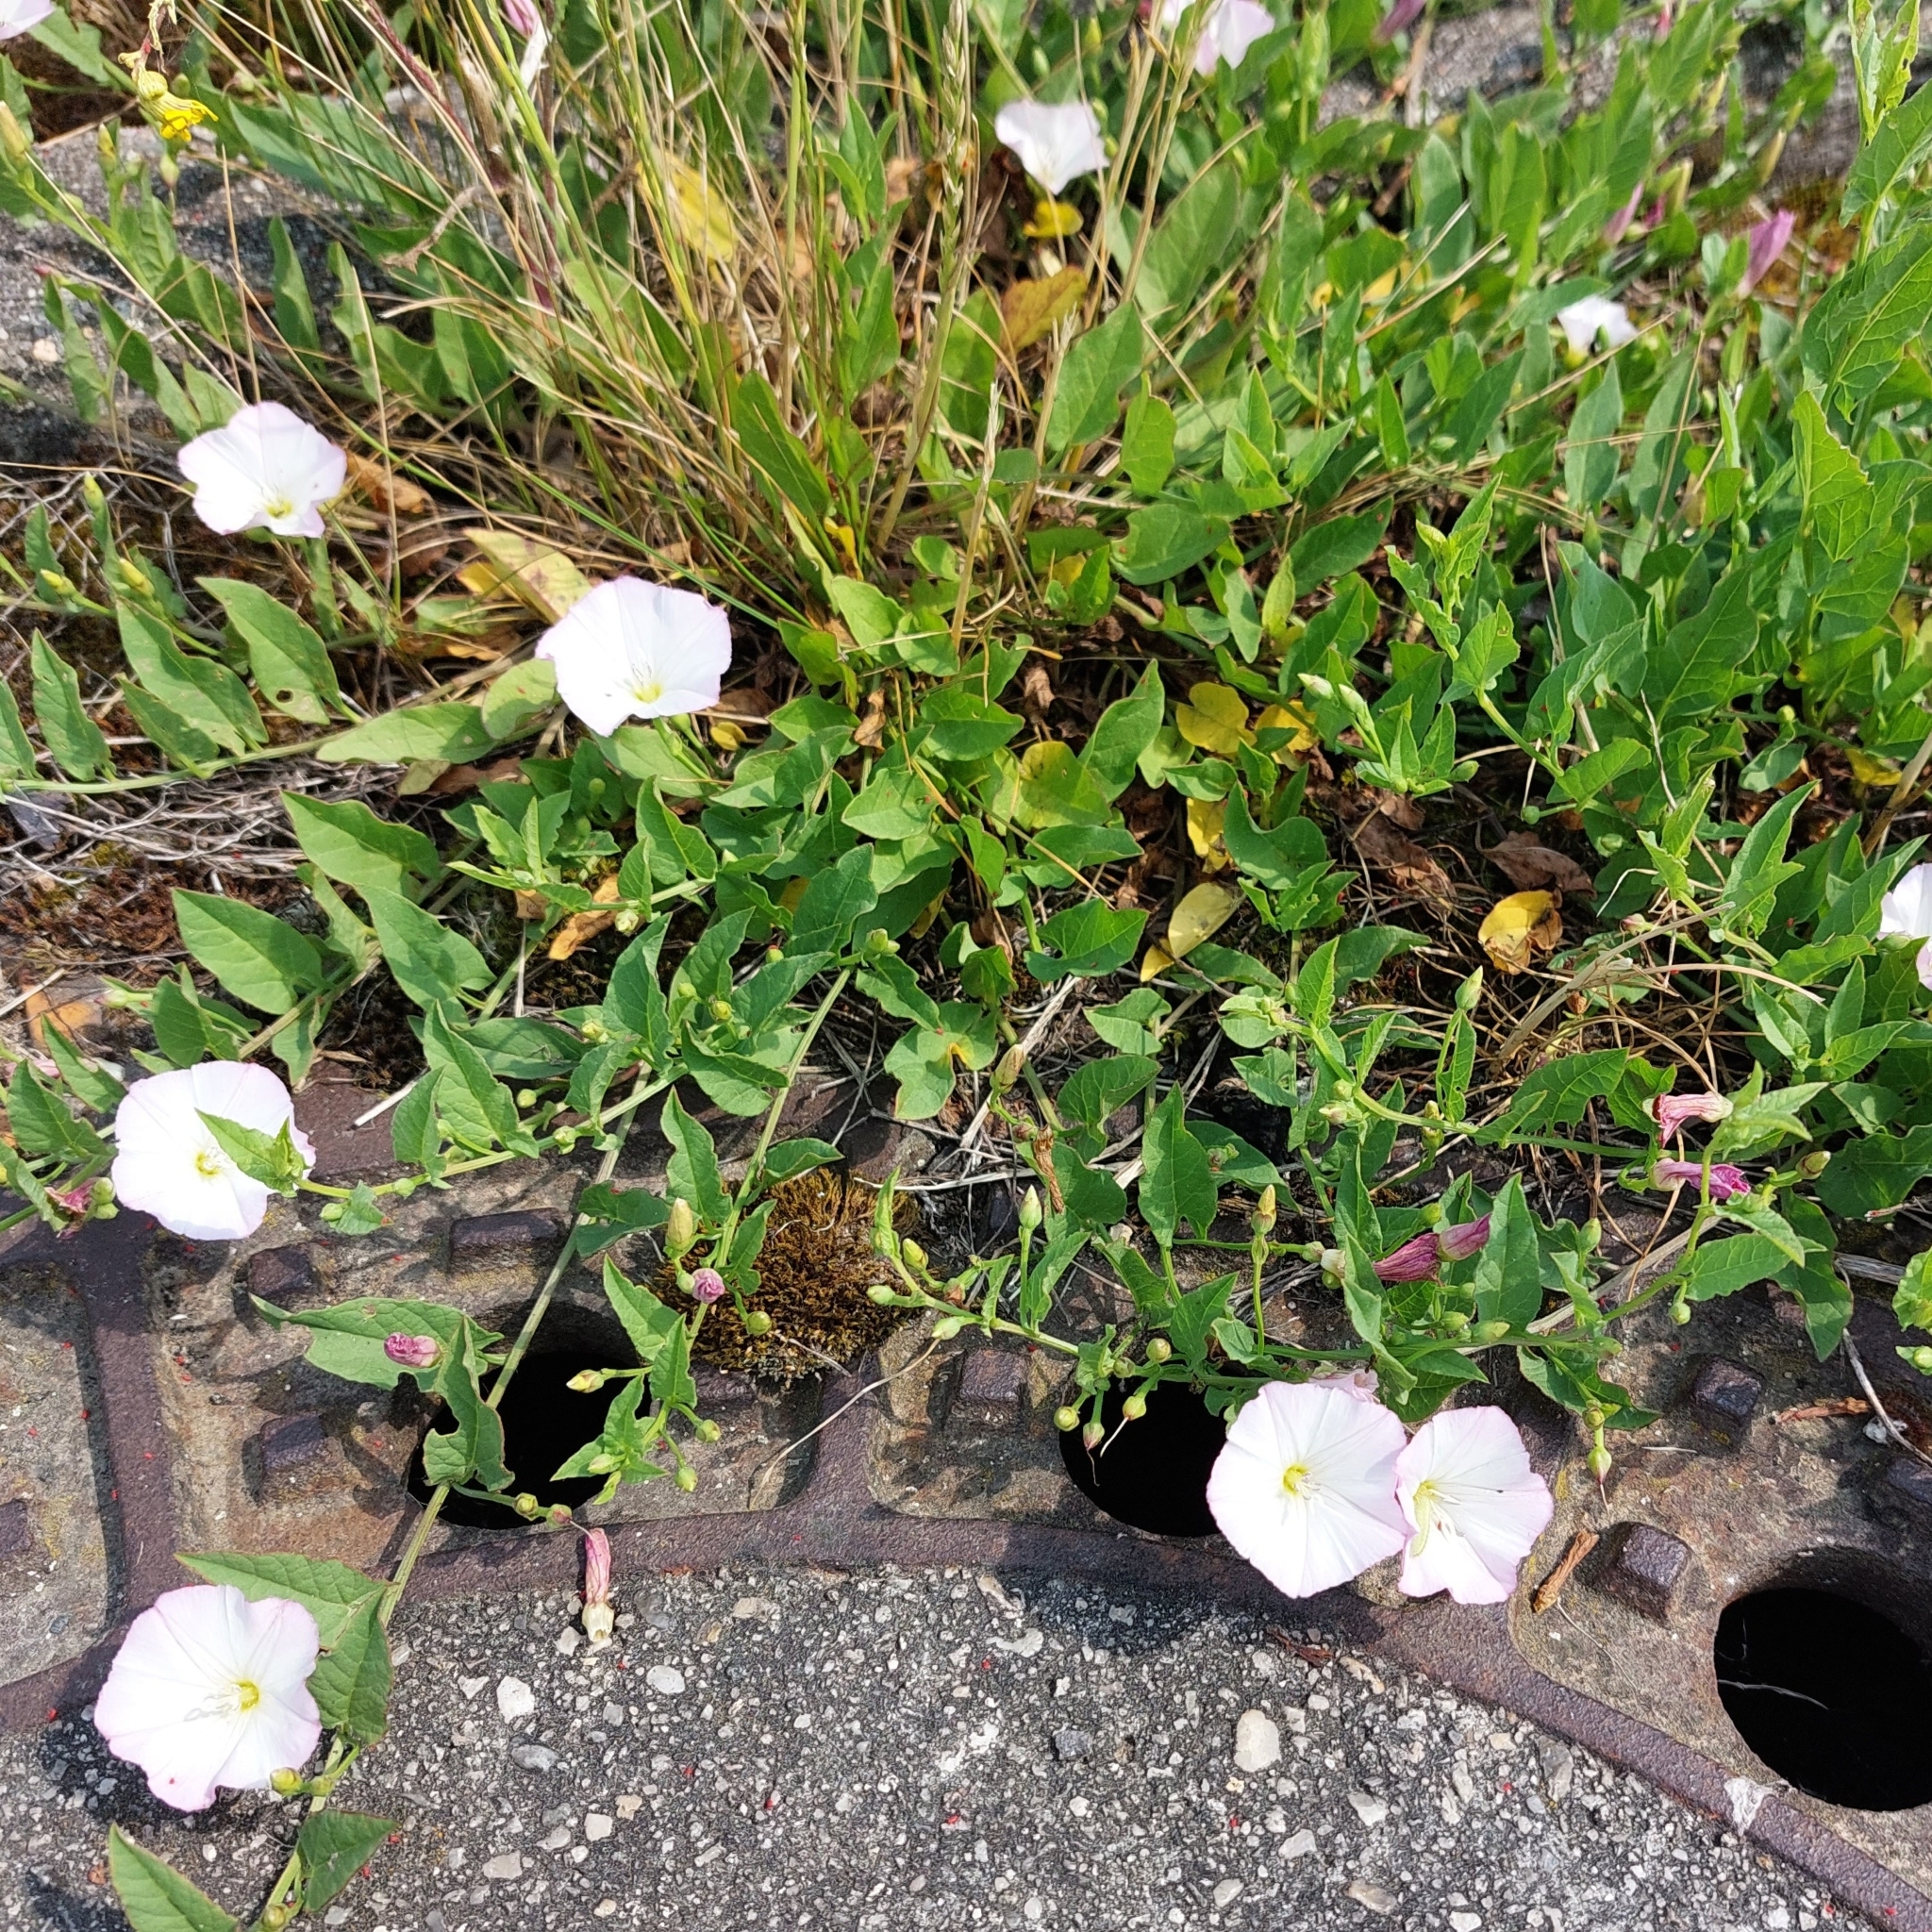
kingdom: Plantae
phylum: Tracheophyta
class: Magnoliopsida
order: Solanales
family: Convolvulaceae
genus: Convolvulus
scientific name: Convolvulus arvensis
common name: Field bindweed
